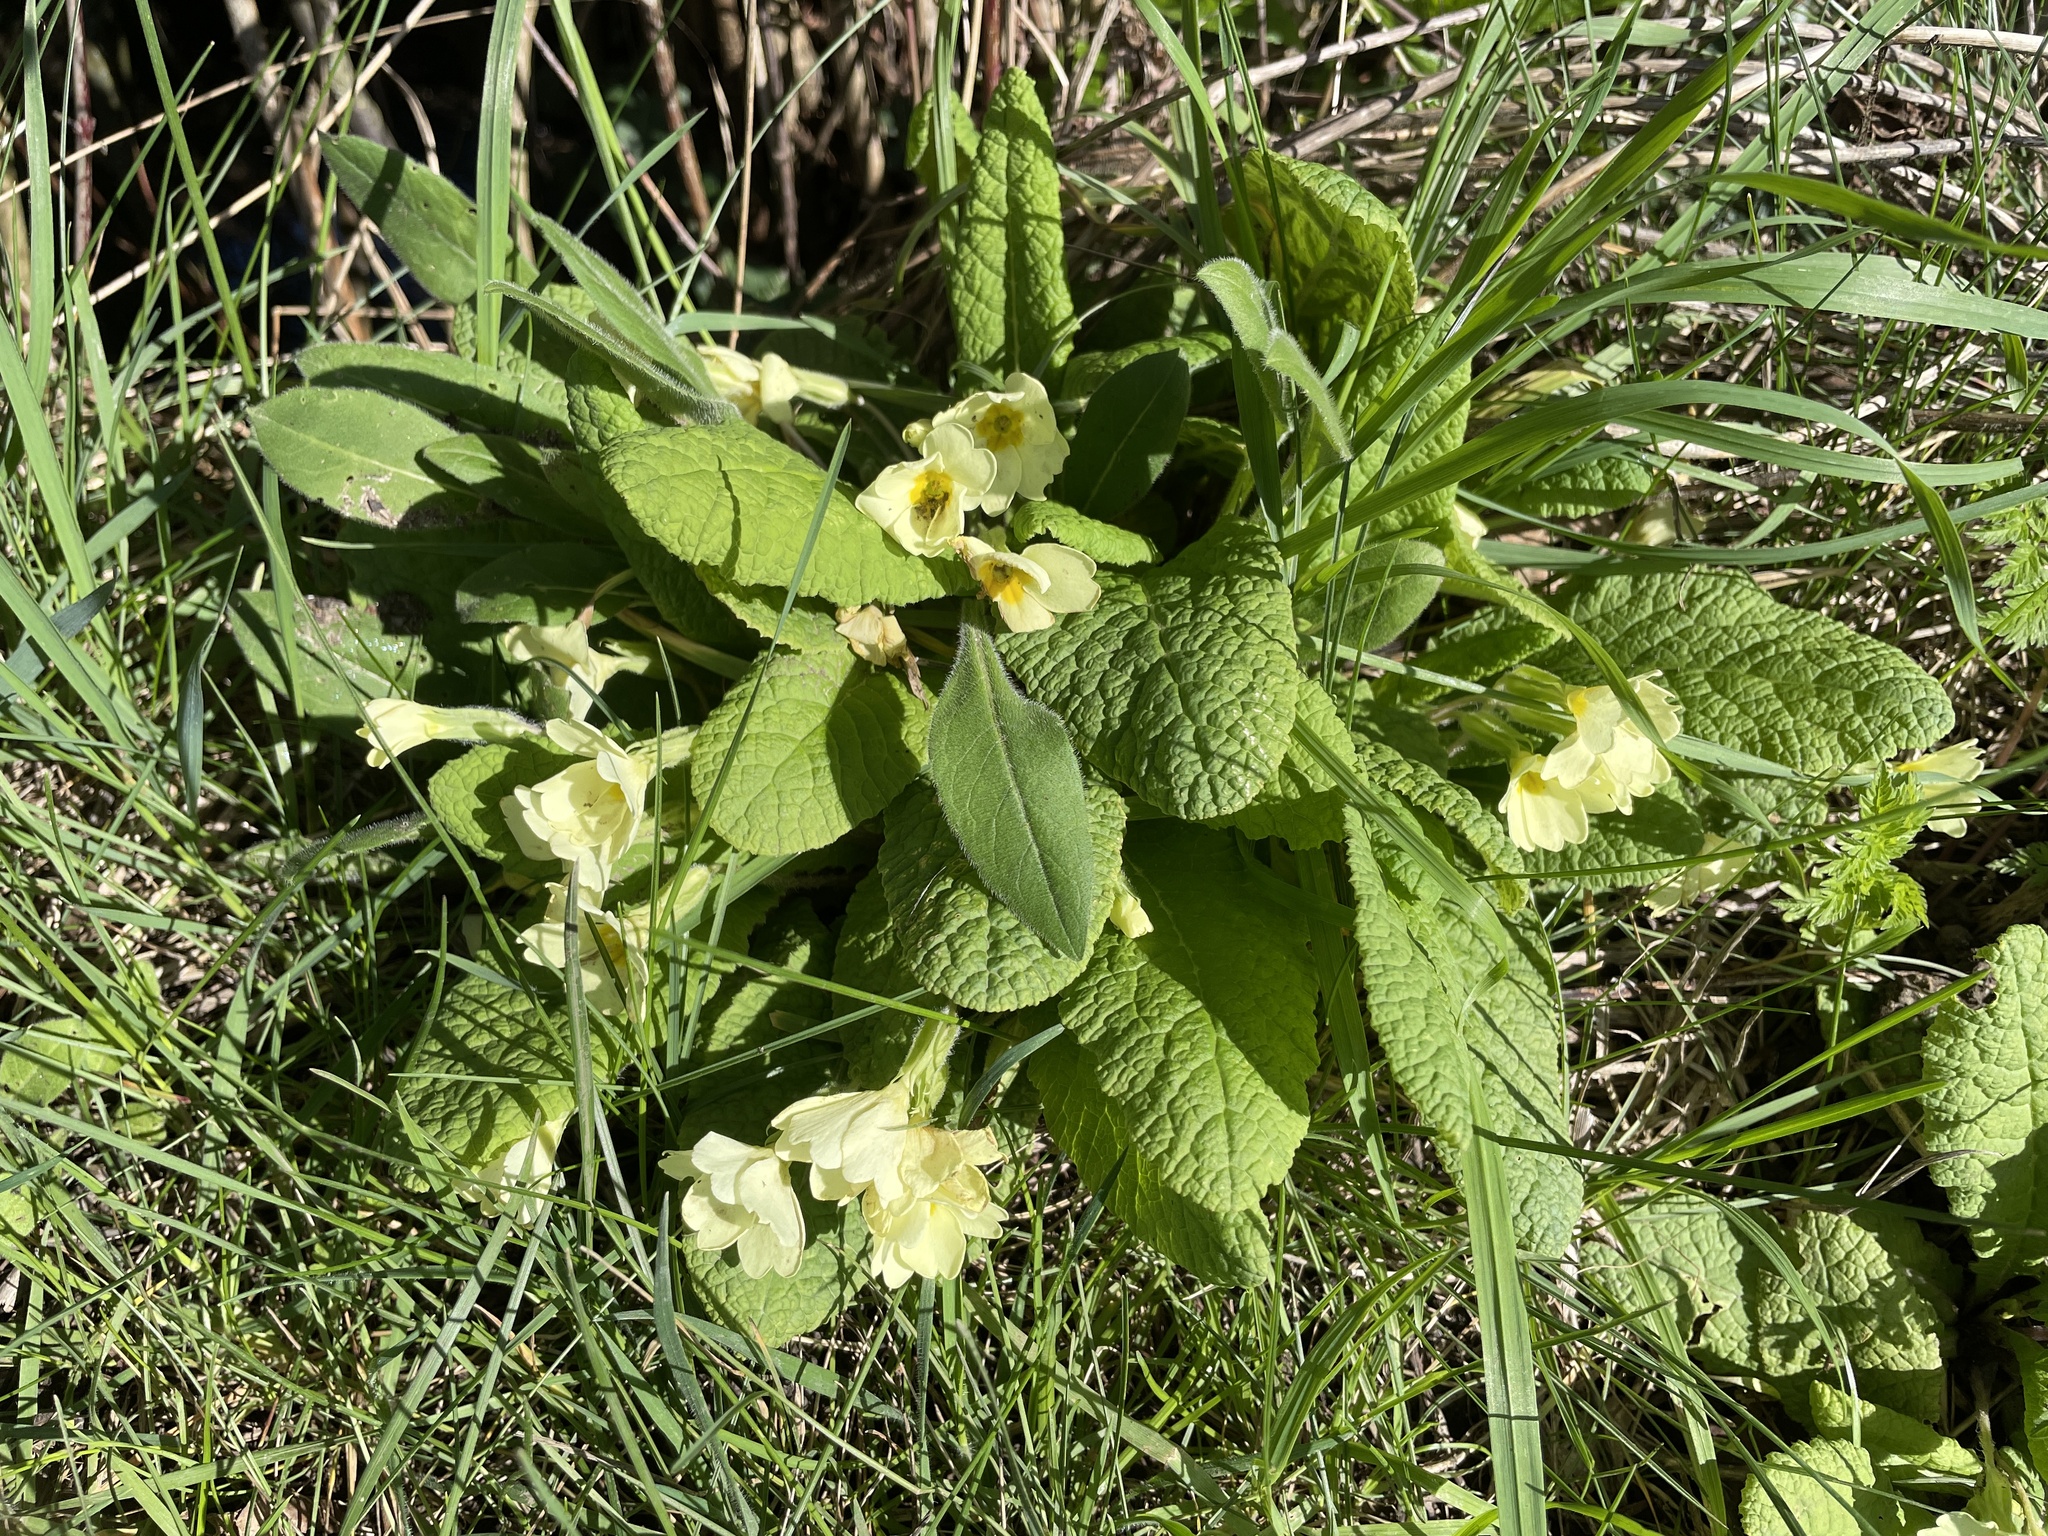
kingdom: Plantae
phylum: Tracheophyta
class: Magnoliopsida
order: Ericales
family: Primulaceae
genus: Primula
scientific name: Primula vulgaris
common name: Primrose
